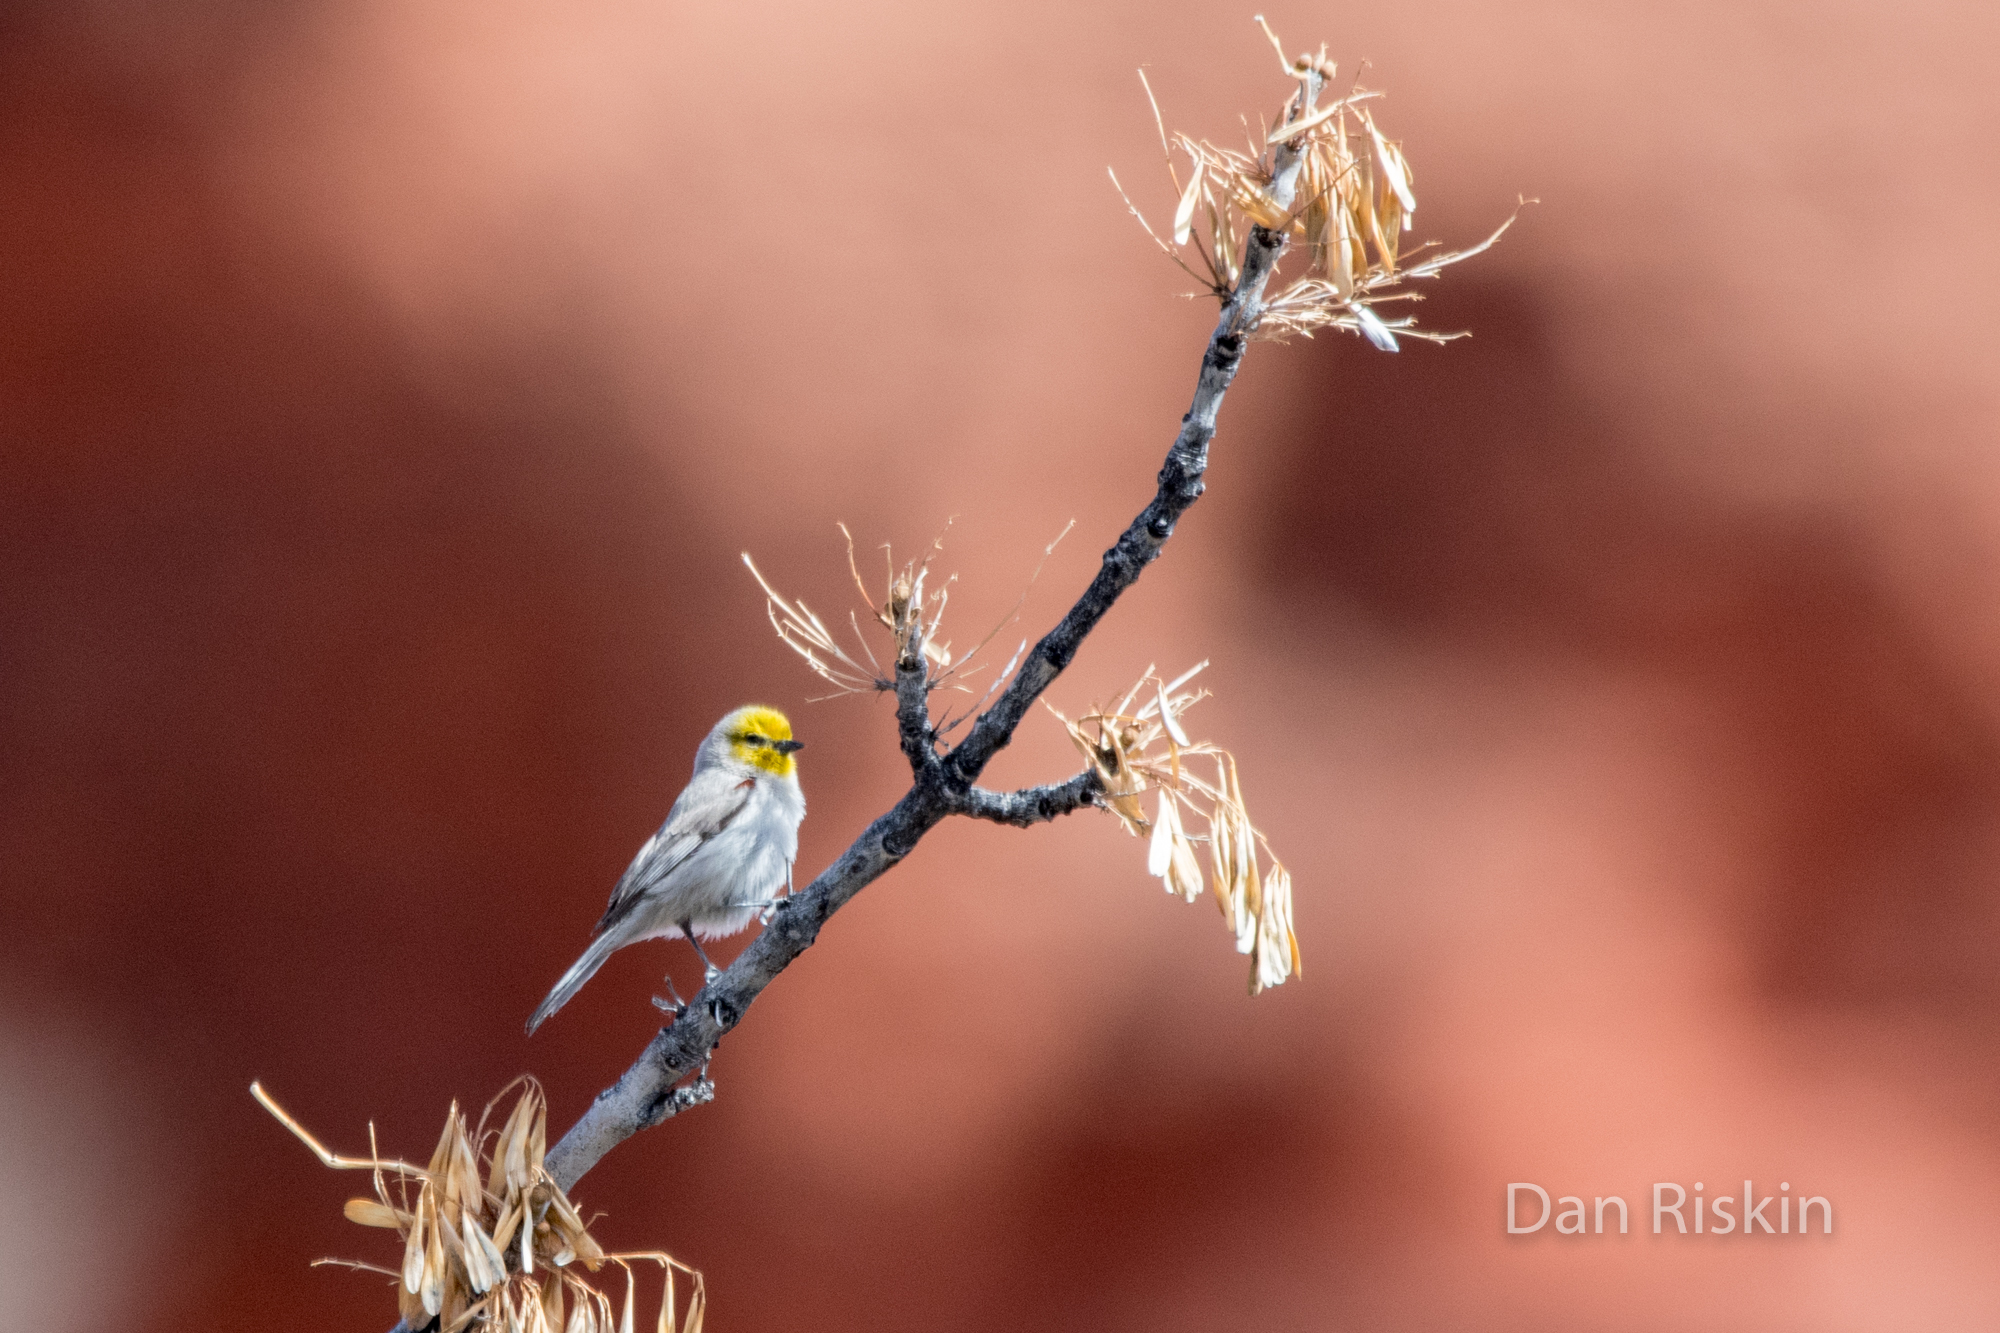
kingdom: Animalia
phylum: Chordata
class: Aves
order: Passeriformes
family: Remizidae
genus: Auriparus
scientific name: Auriparus flaviceps
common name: Verdin
